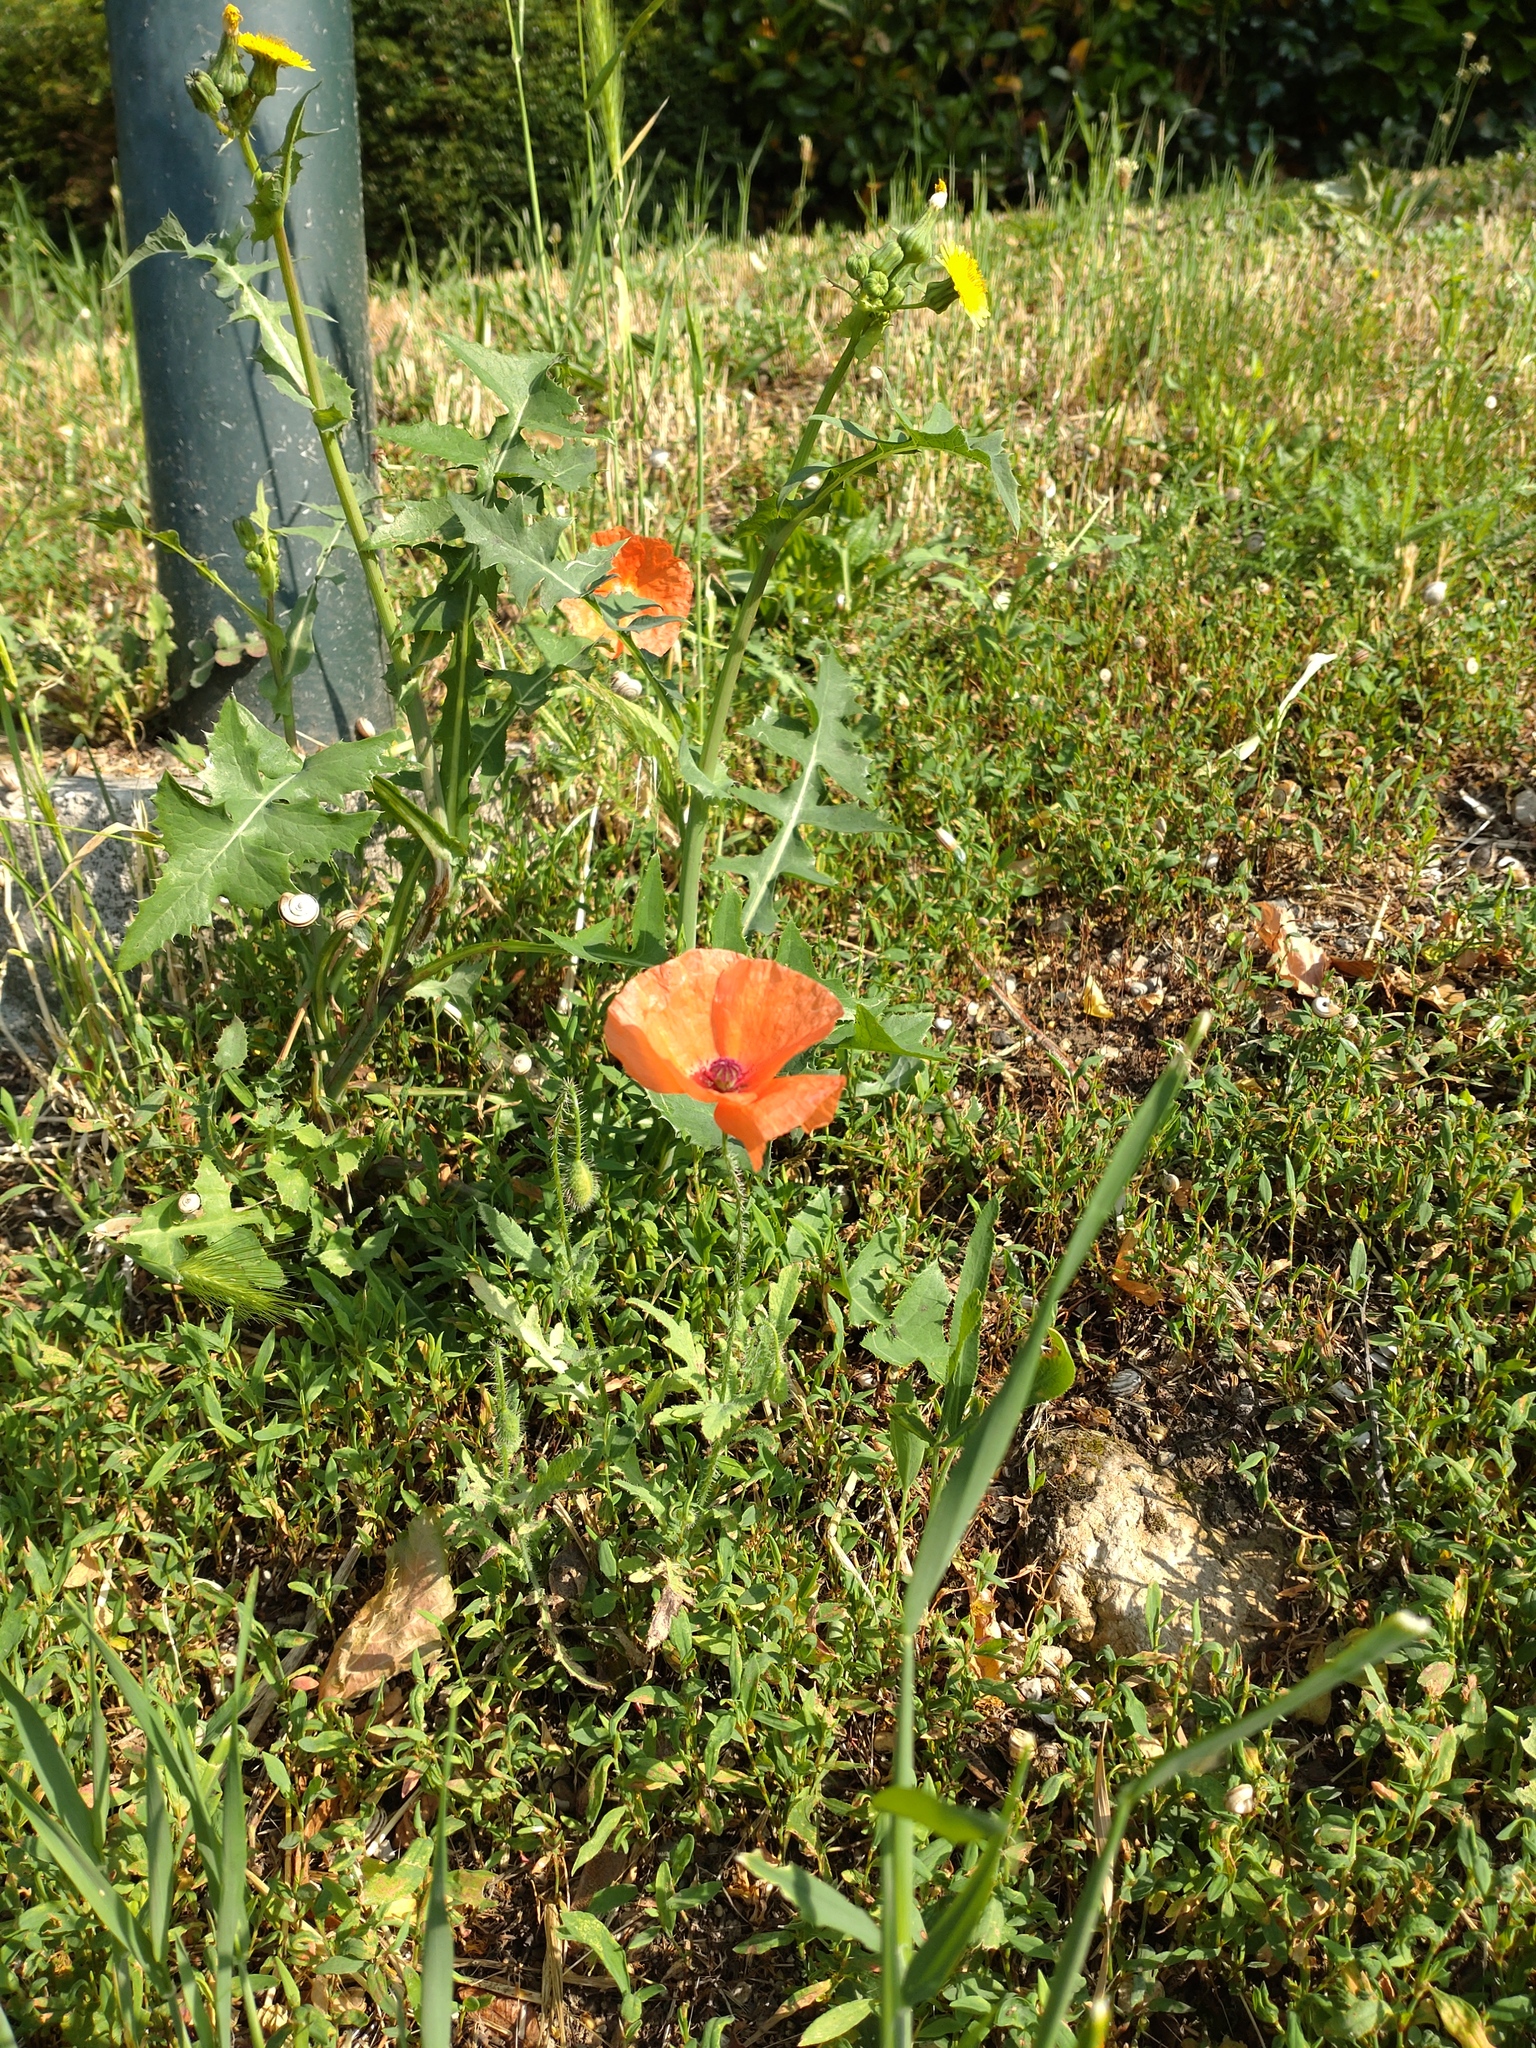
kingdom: Plantae
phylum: Tracheophyta
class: Magnoliopsida
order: Ranunculales
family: Papaveraceae
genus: Papaver
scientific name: Papaver rhoeas
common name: Corn poppy
